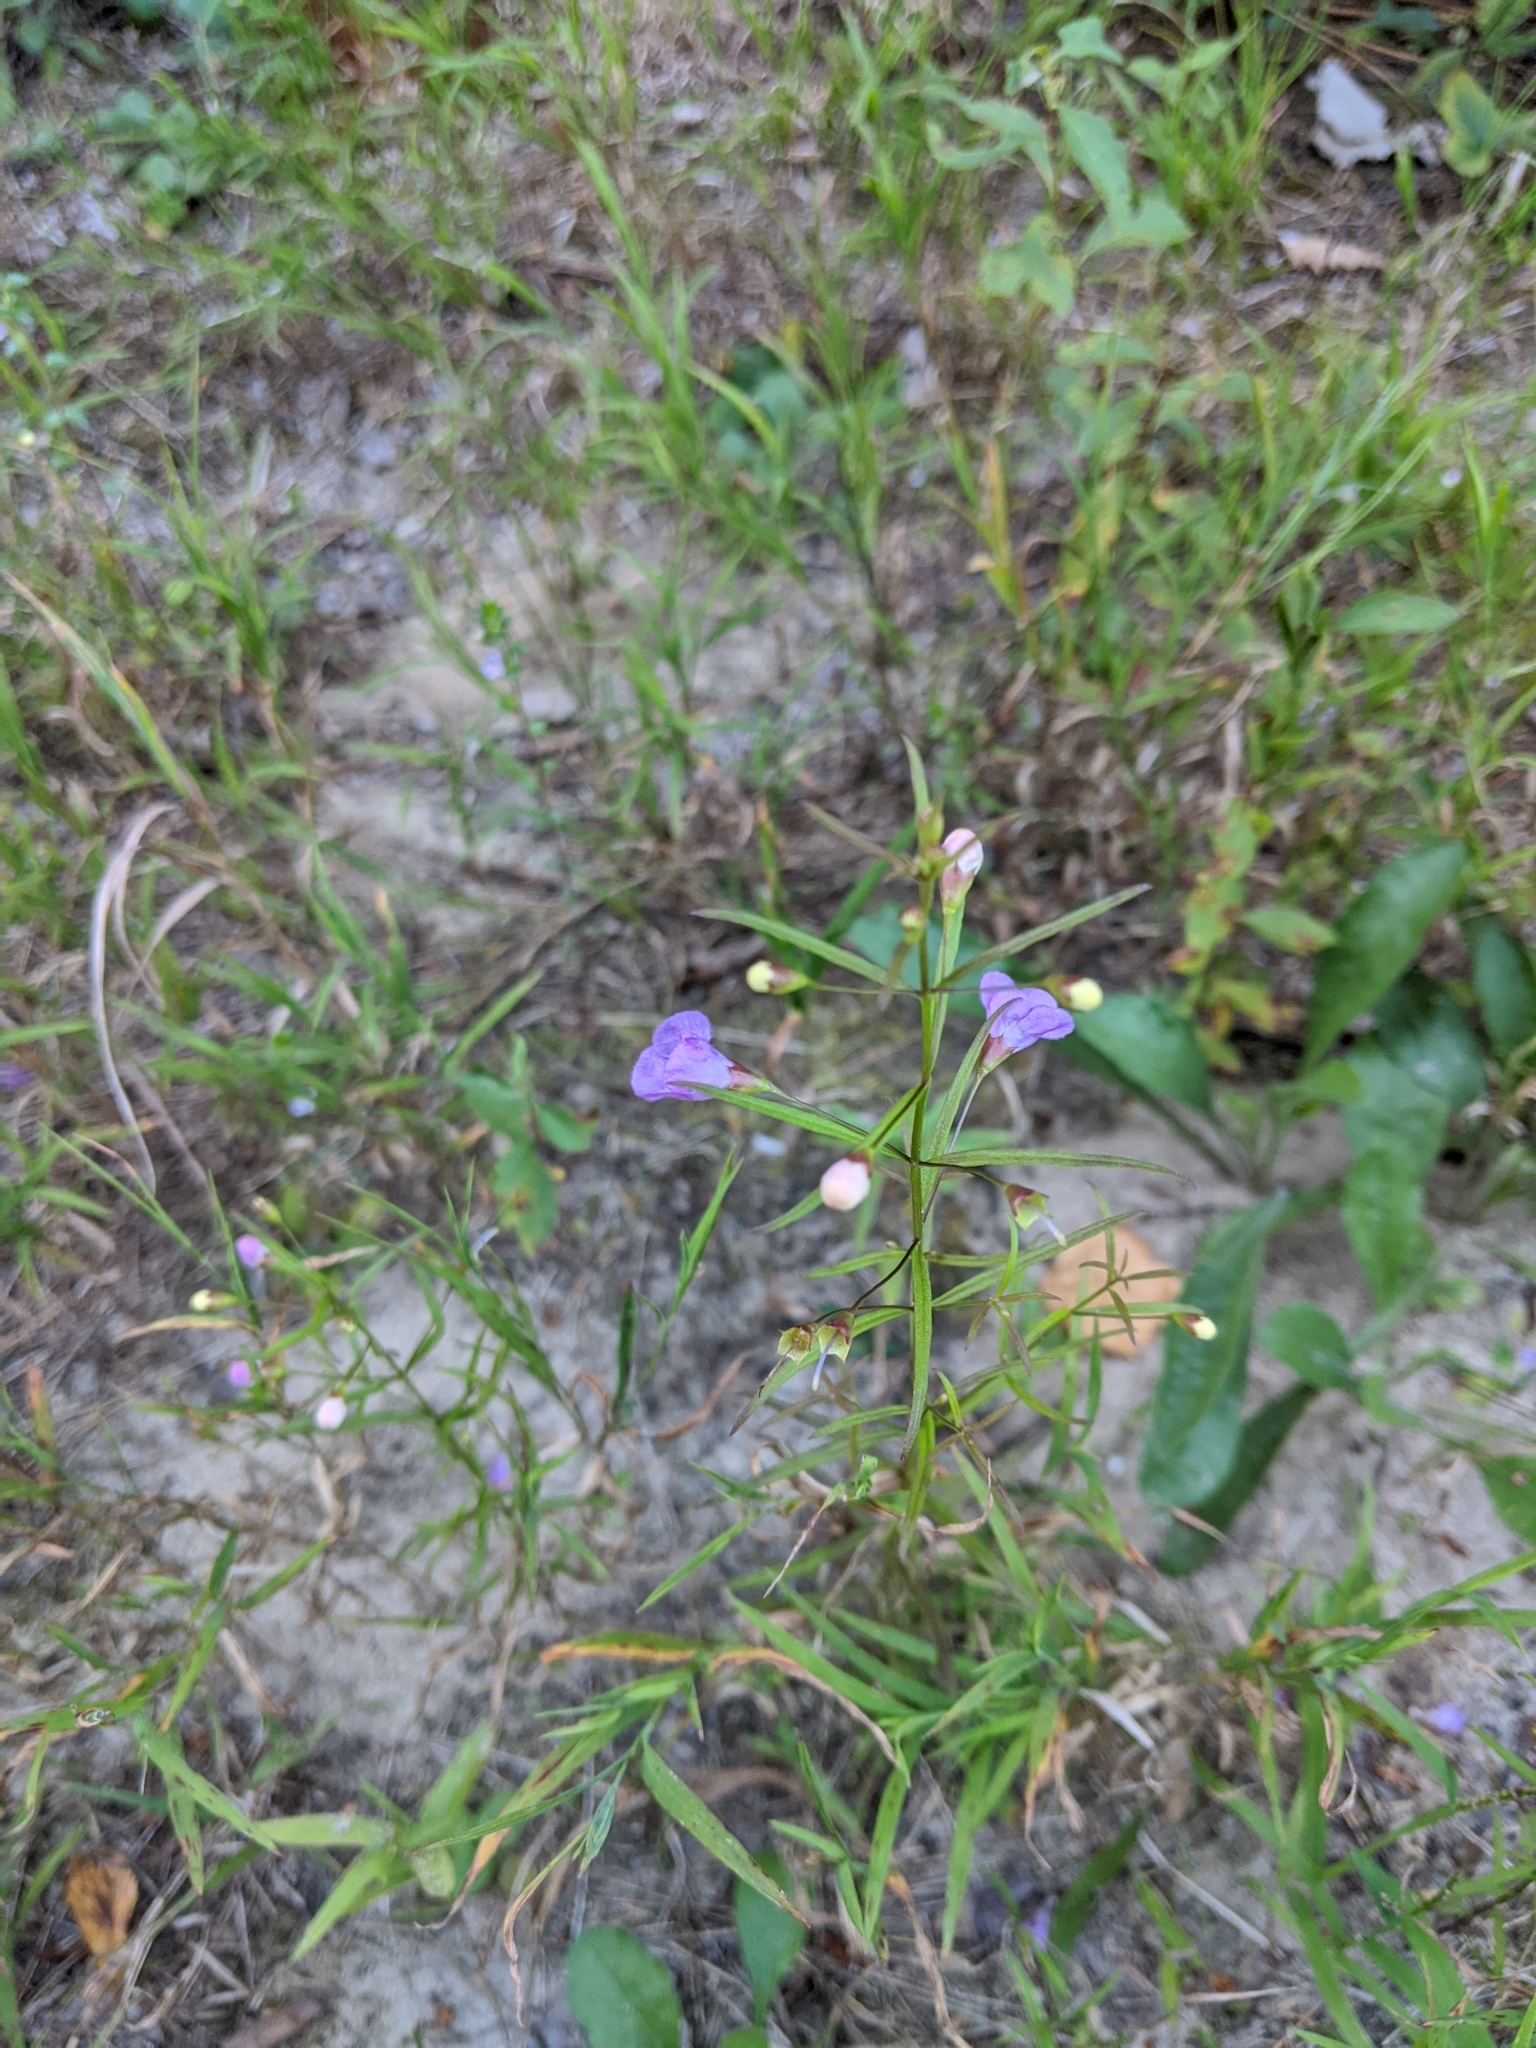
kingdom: Plantae
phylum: Tracheophyta
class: Magnoliopsida
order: Lamiales
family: Orobanchaceae
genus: Agalinis
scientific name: Agalinis tenuifolia
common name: Slender agalinis
